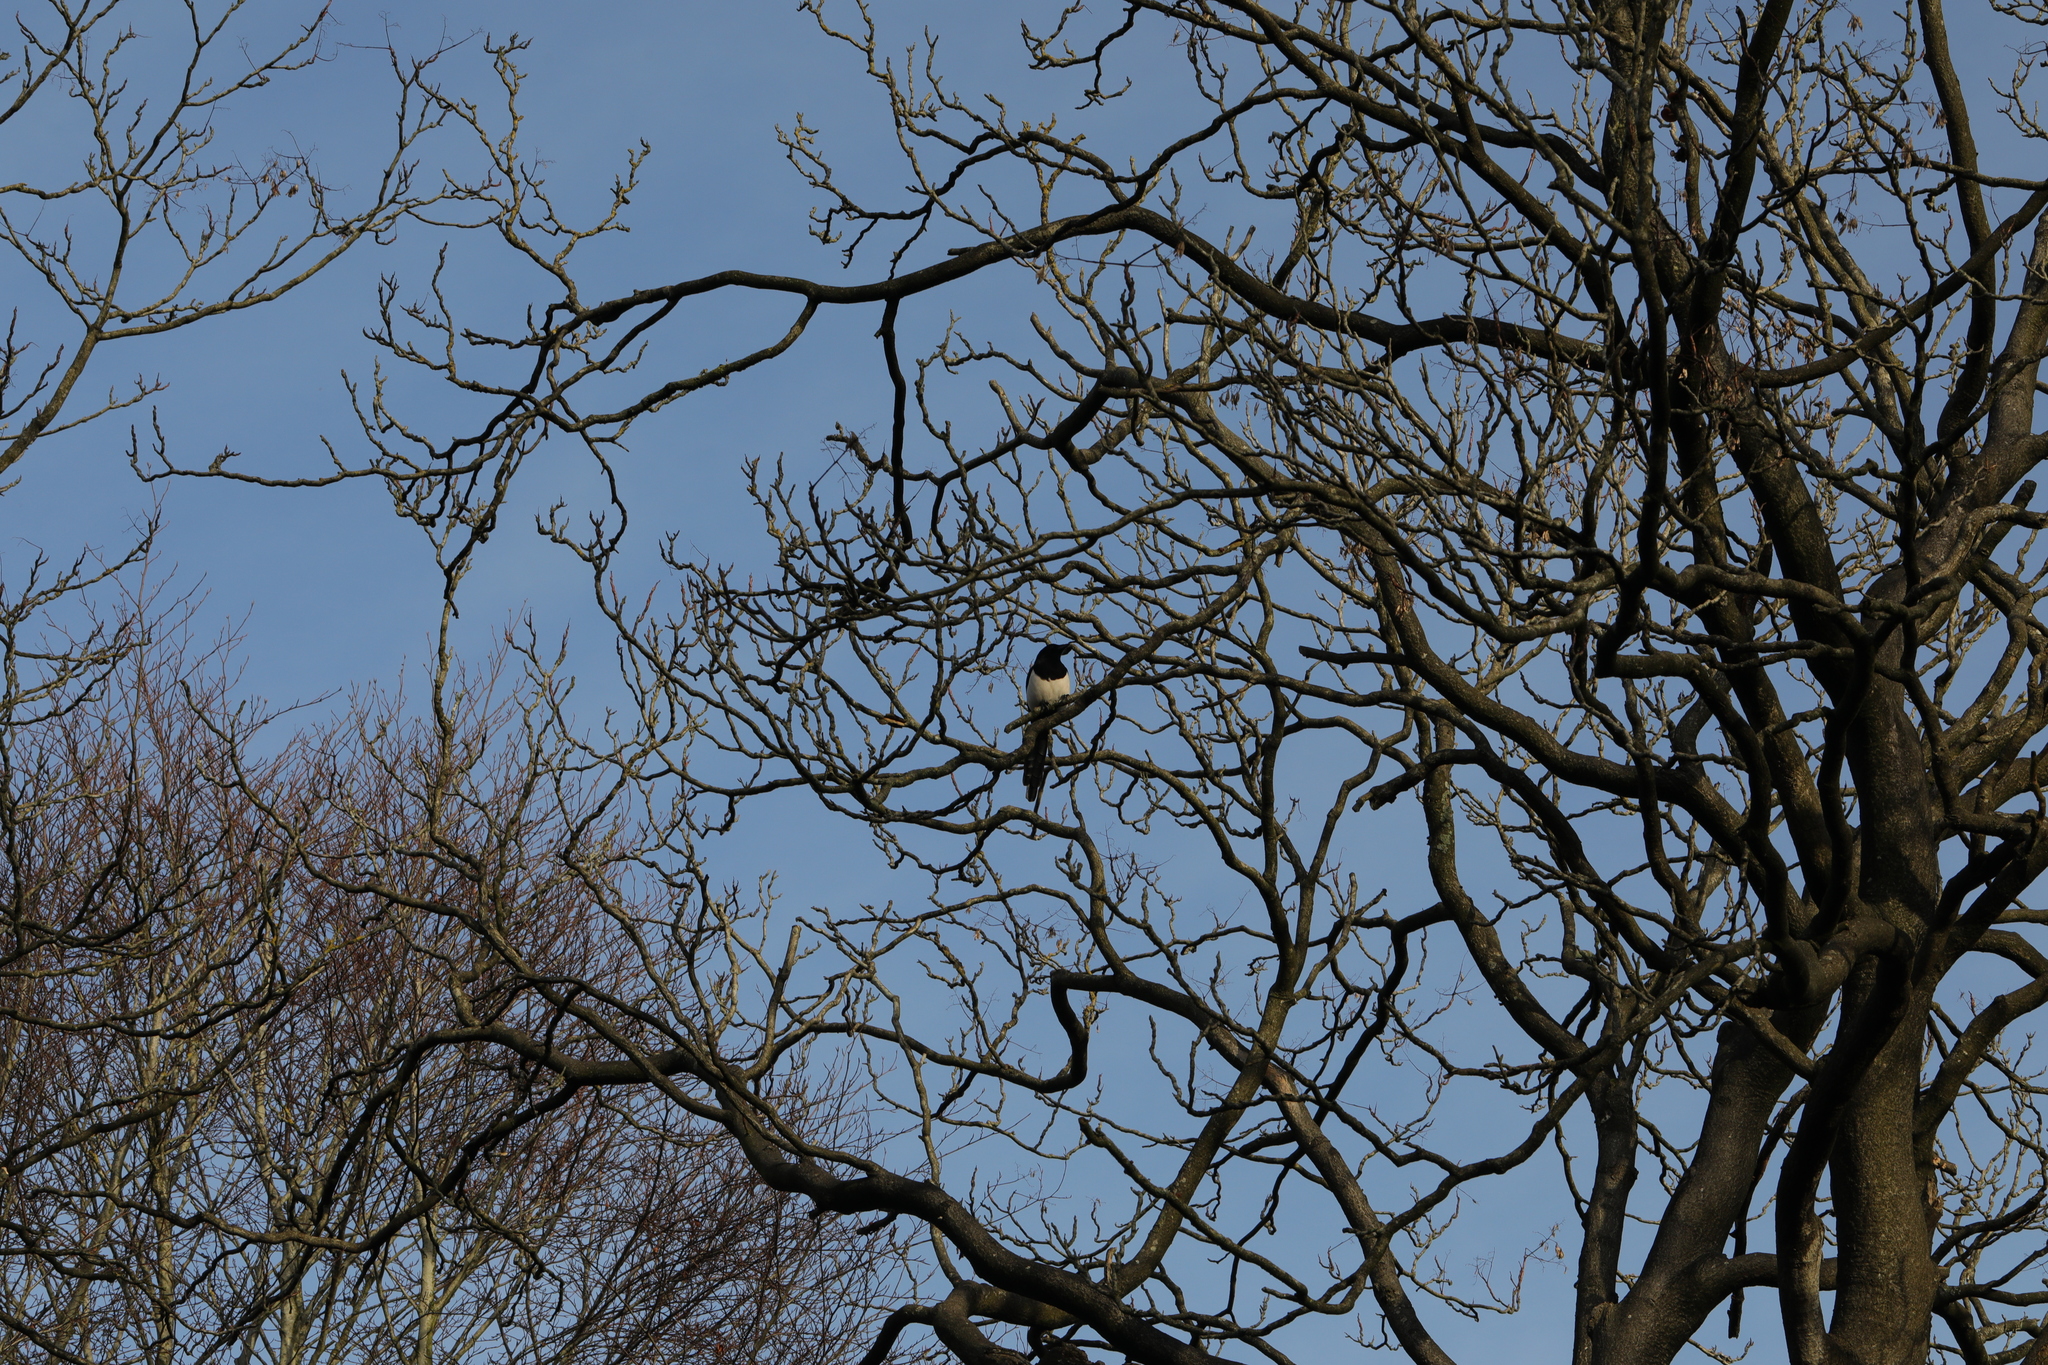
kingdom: Animalia
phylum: Chordata
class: Aves
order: Passeriformes
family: Corvidae
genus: Pica
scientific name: Pica pica
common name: Eurasian magpie
